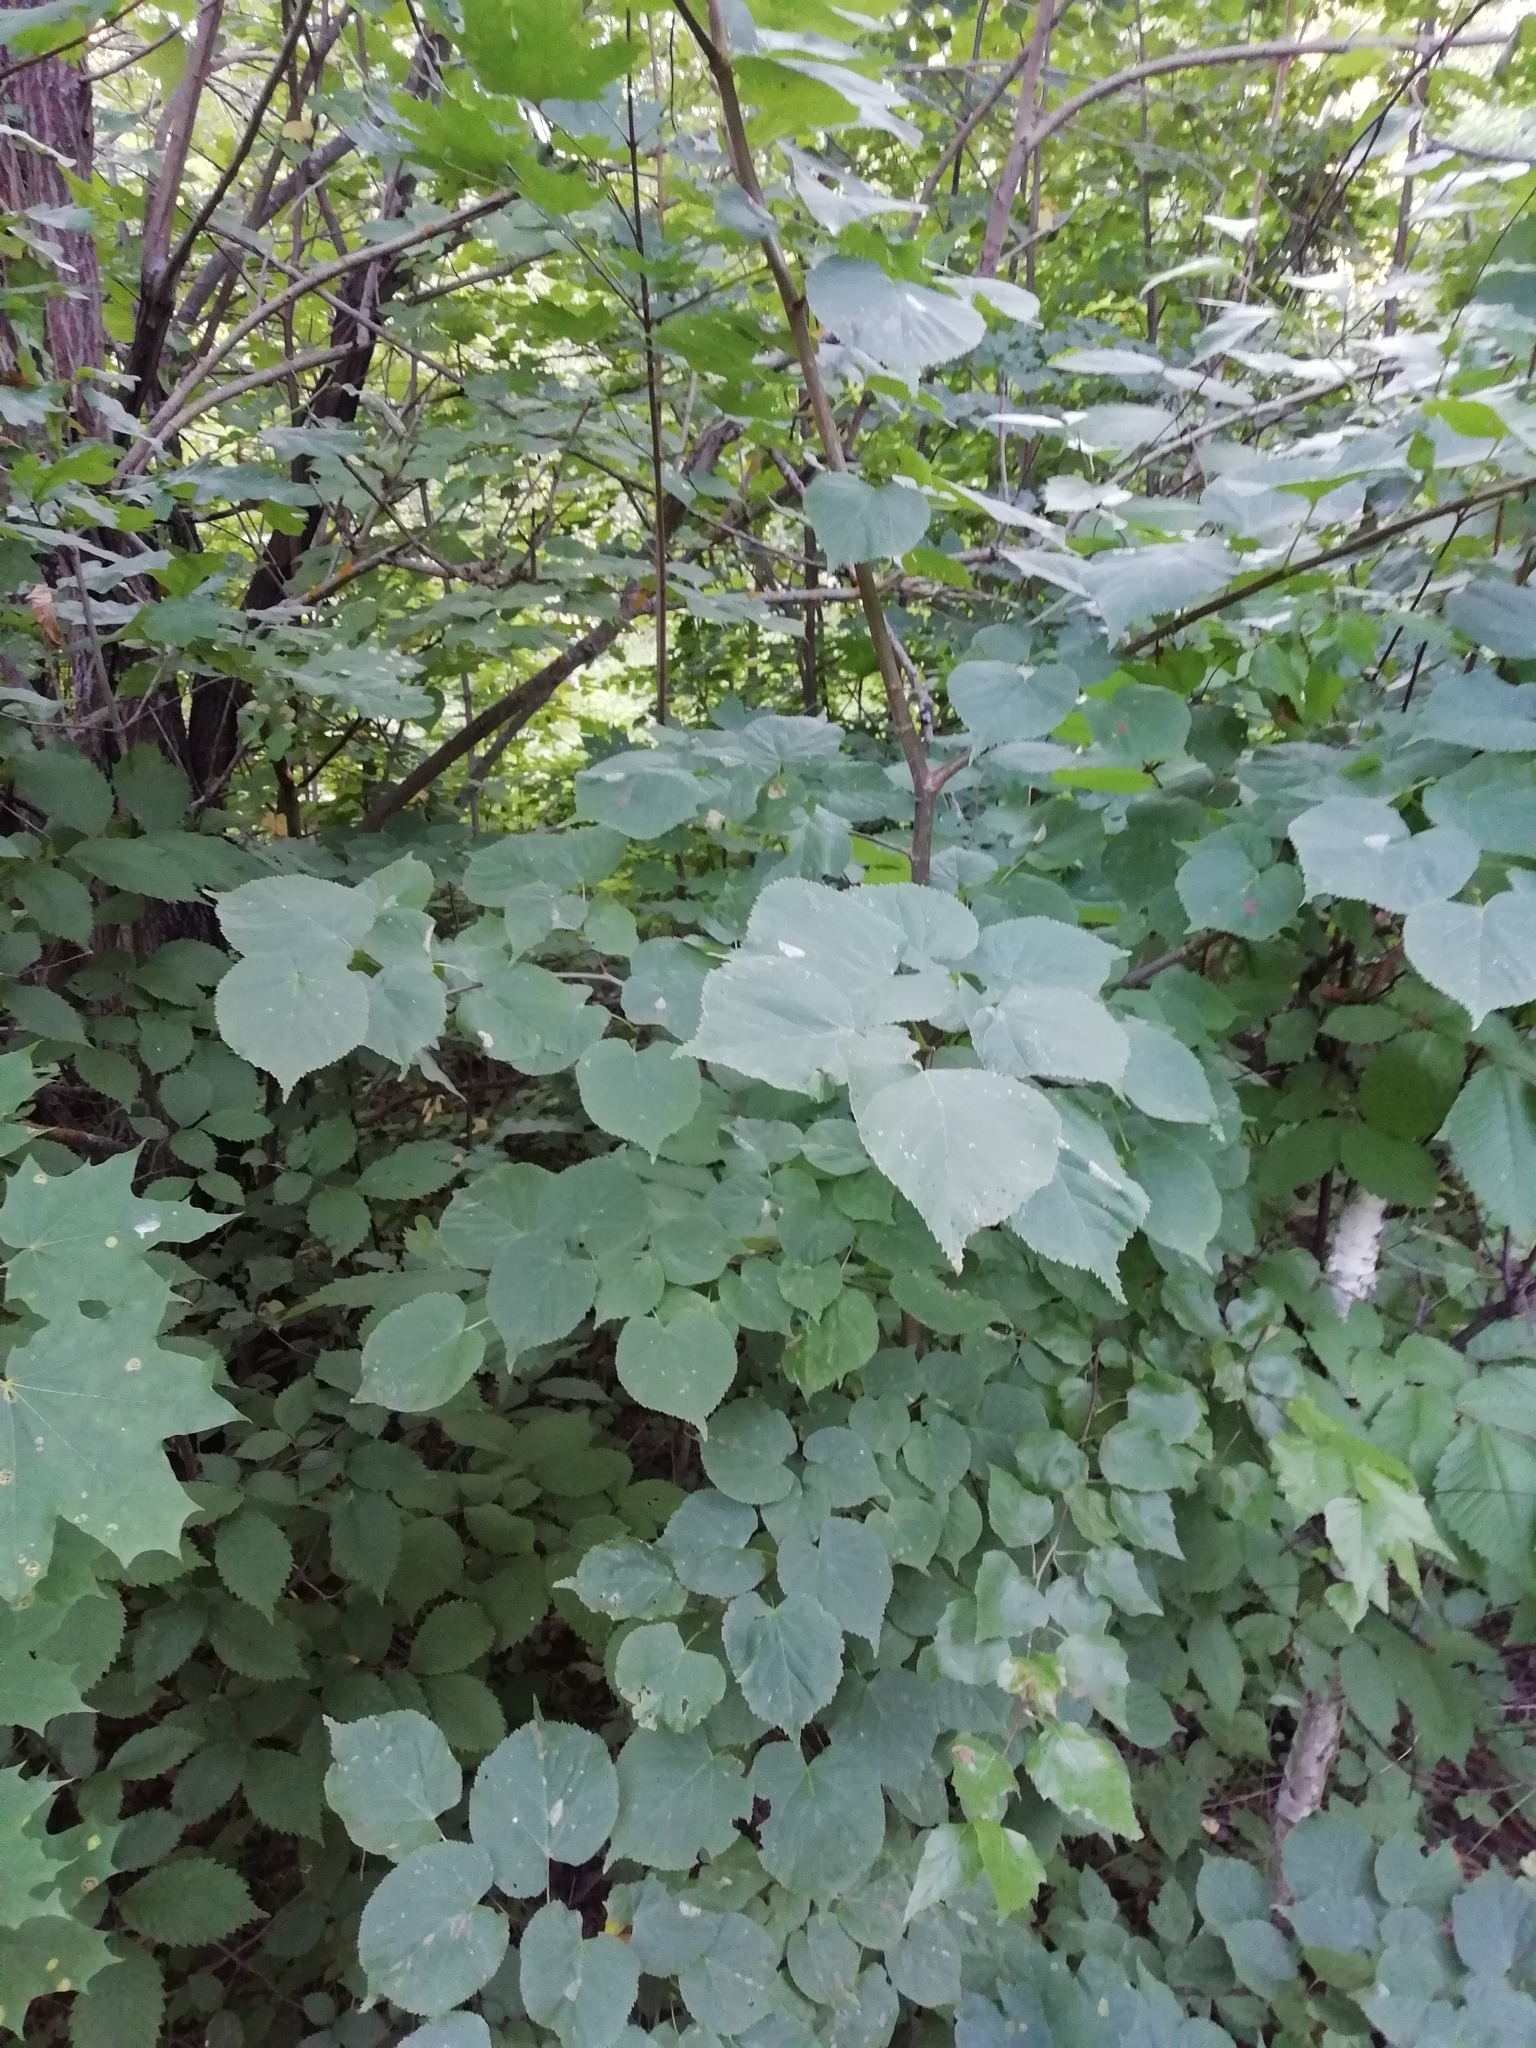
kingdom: Plantae
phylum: Tracheophyta
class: Magnoliopsida
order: Malvales
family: Malvaceae
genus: Tilia
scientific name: Tilia cordata
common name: Small-leaved lime
